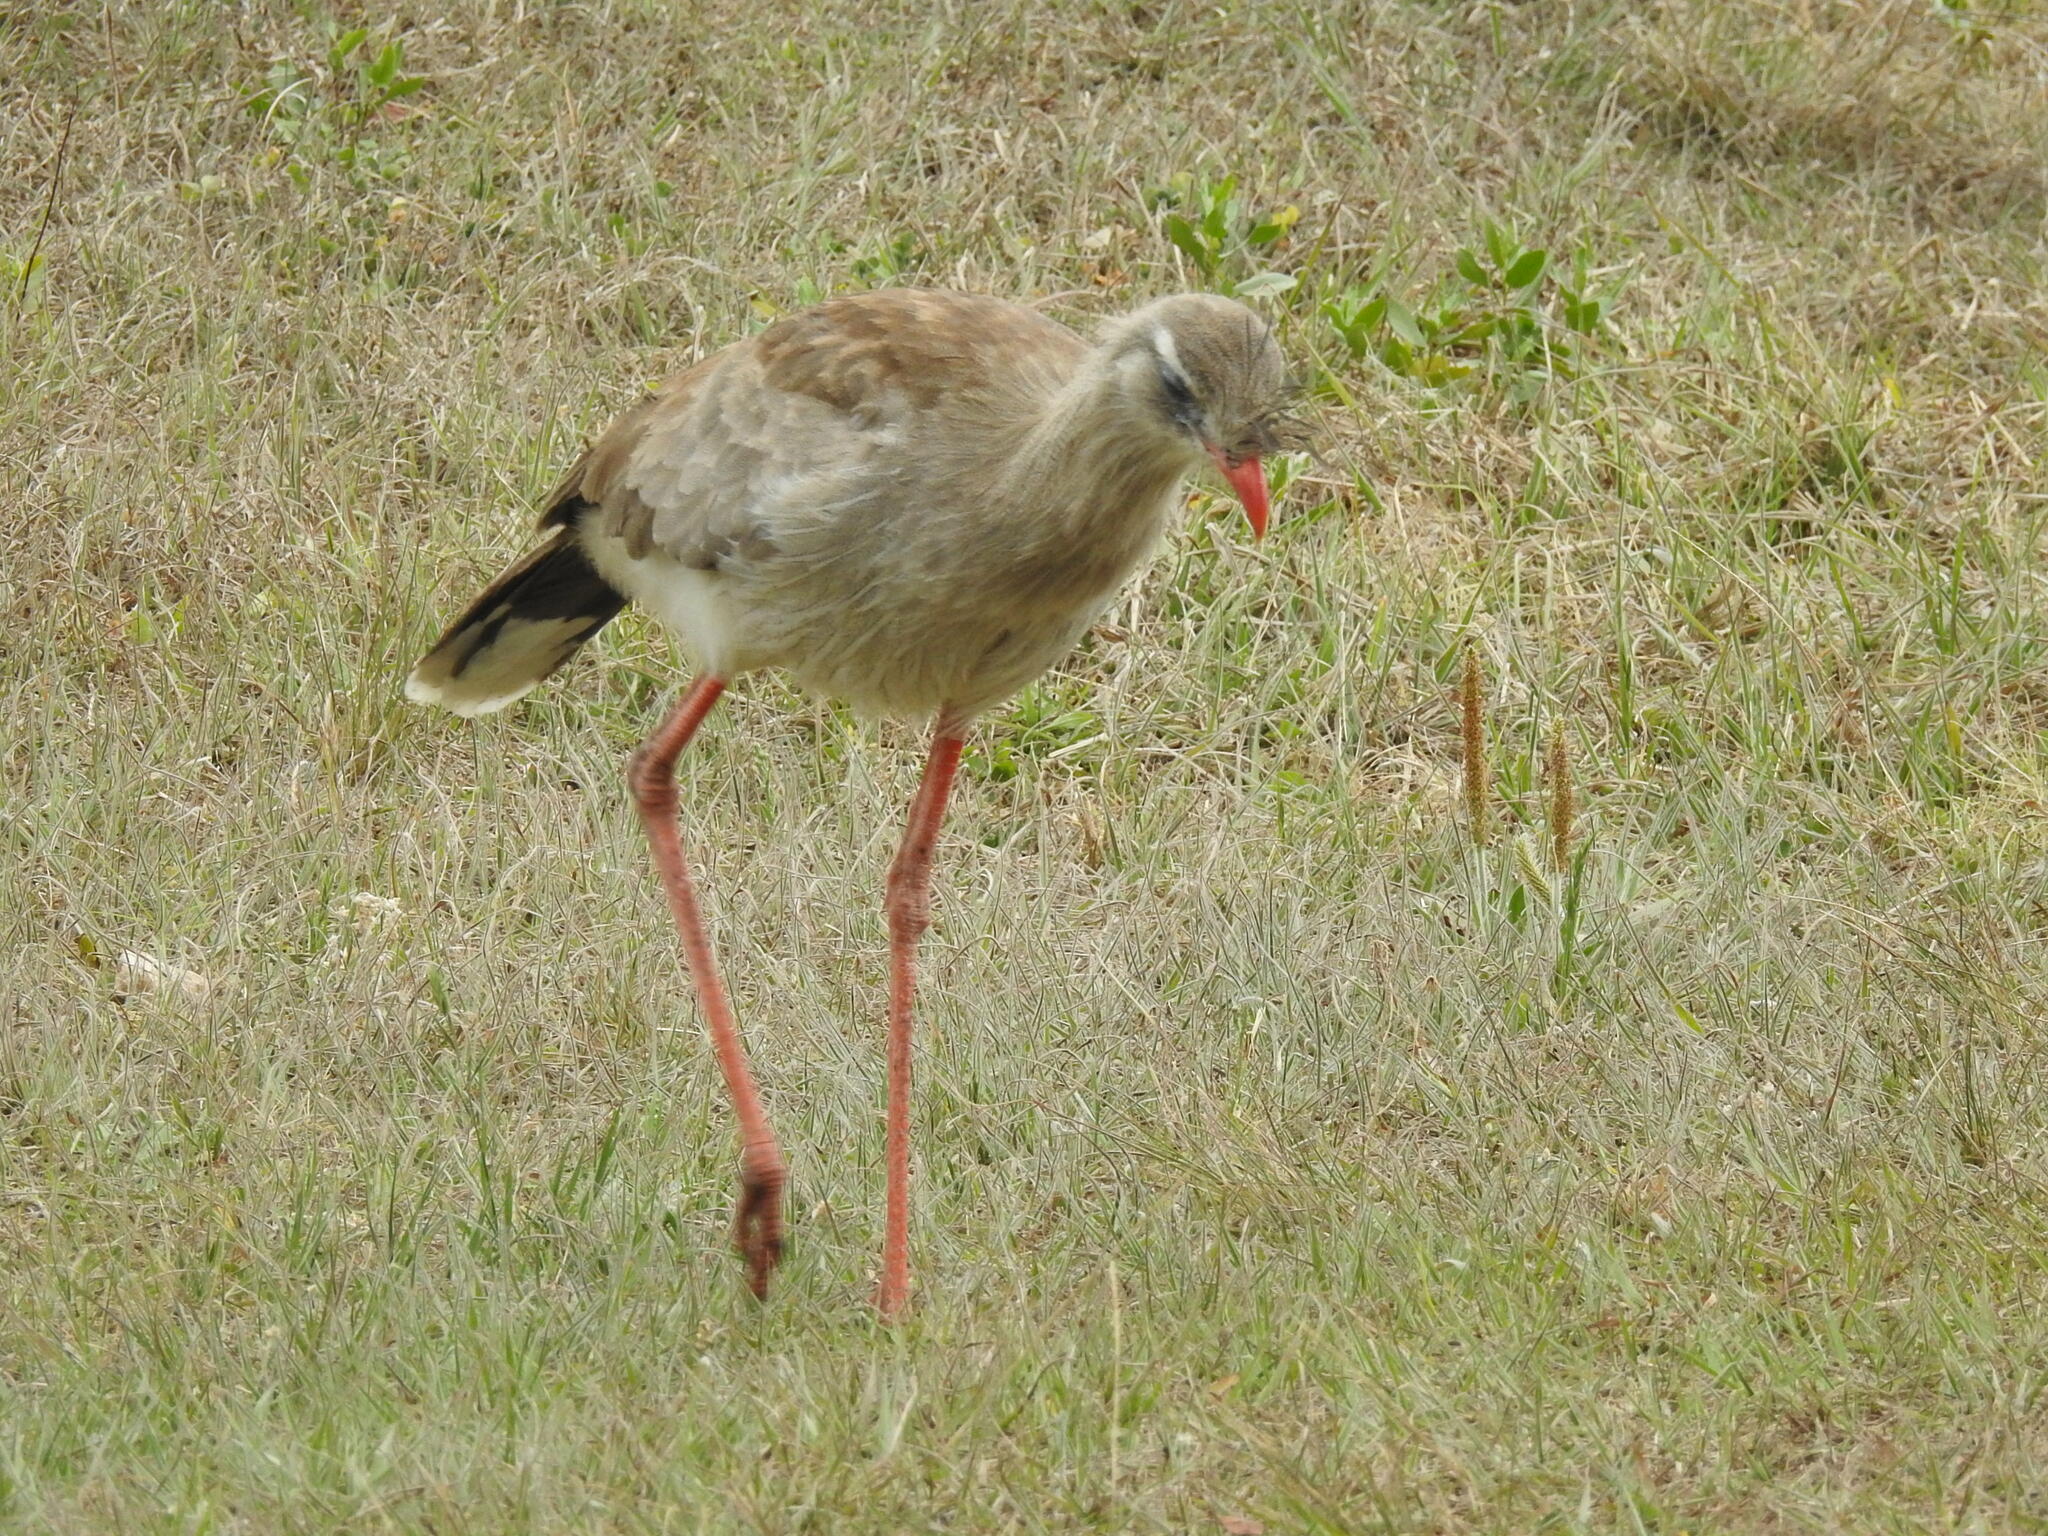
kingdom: Animalia
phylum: Chordata
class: Aves
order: Cariamiformes
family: Cariamidae
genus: Cariama
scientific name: Cariama cristata
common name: Red-legged seriema
